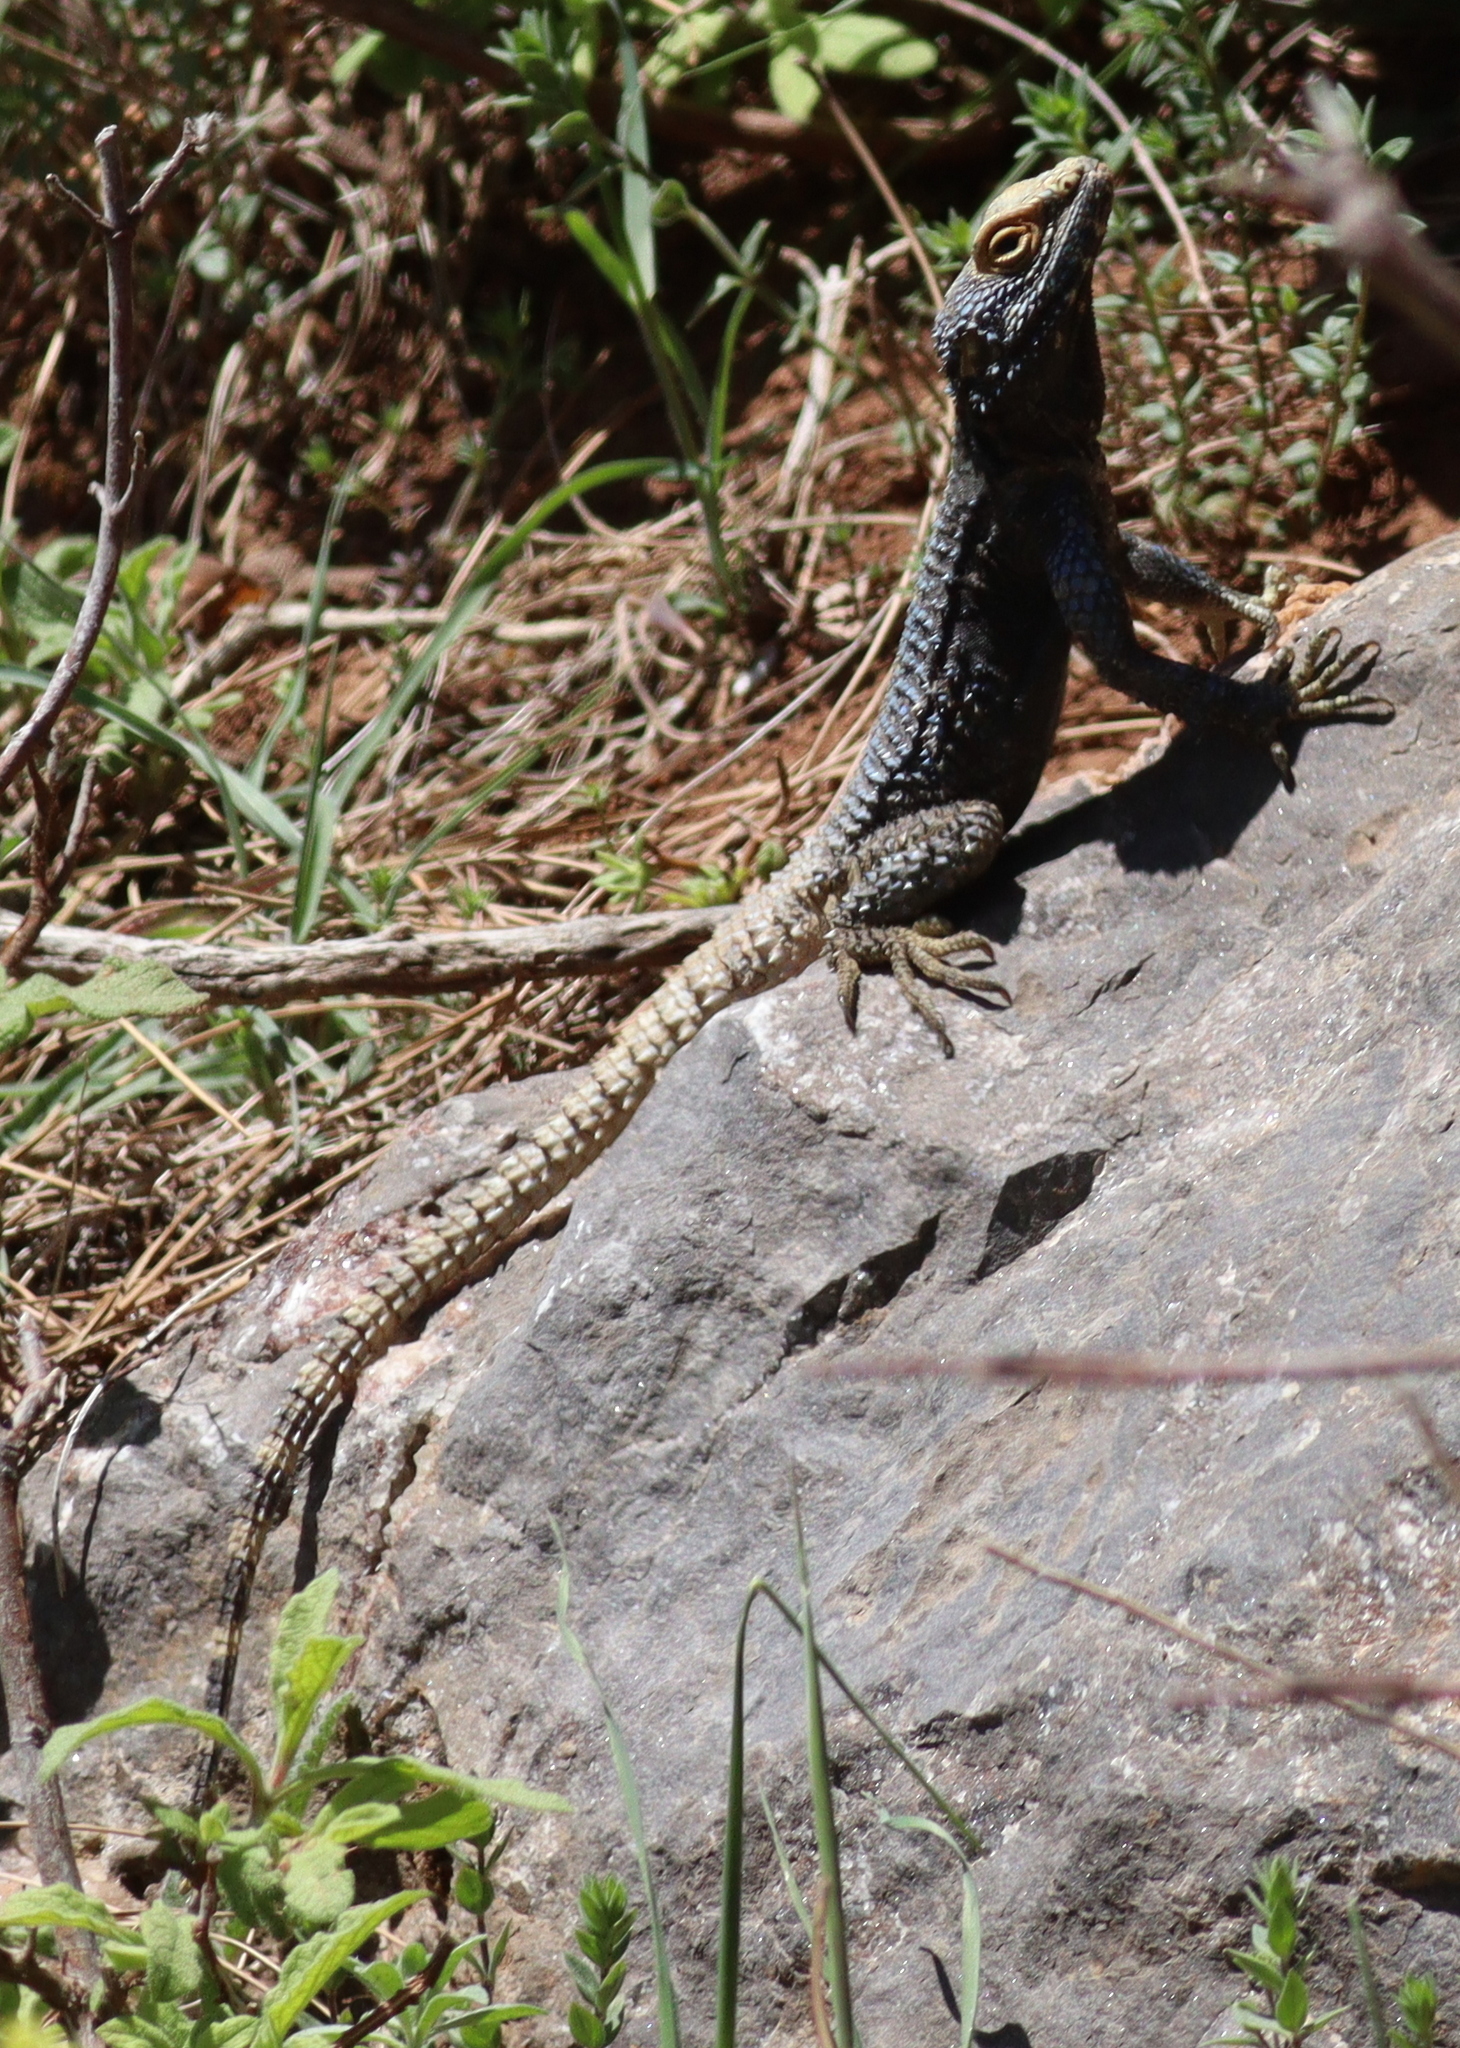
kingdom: Animalia
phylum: Chordata
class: Squamata
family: Agamidae
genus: Stellagama
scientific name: Stellagama stellio
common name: Starred agama
